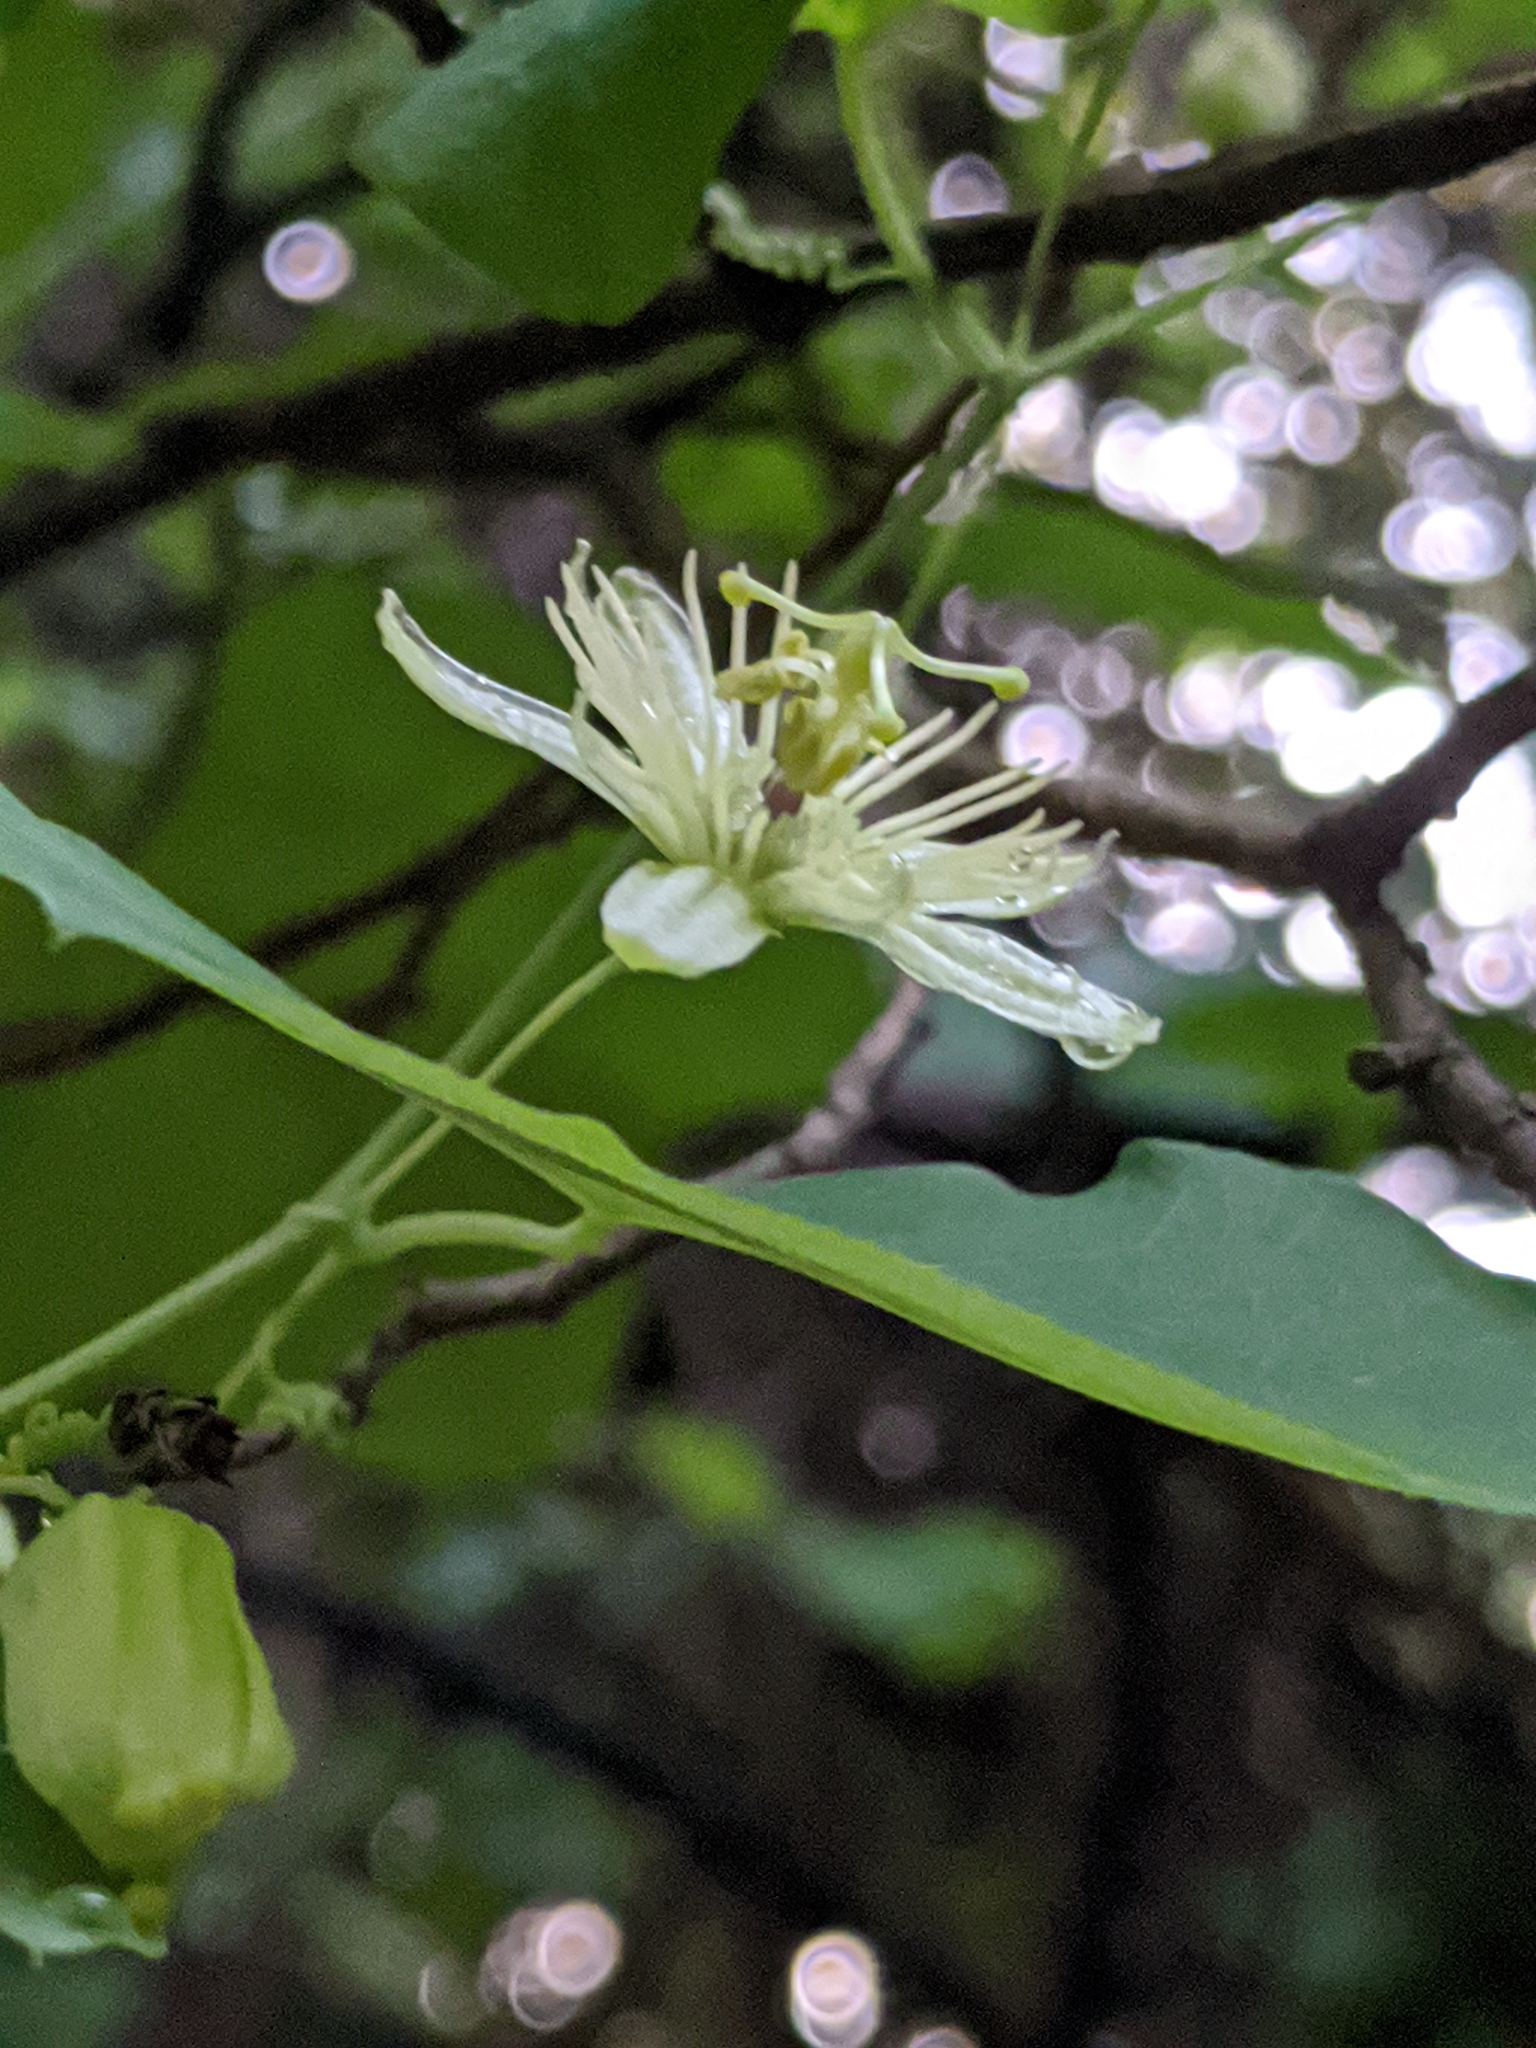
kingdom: Plantae
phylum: Tracheophyta
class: Magnoliopsida
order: Malpighiales
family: Passifloraceae
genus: Passiflora
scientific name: Passiflora lutea
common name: Yellow passionflower
